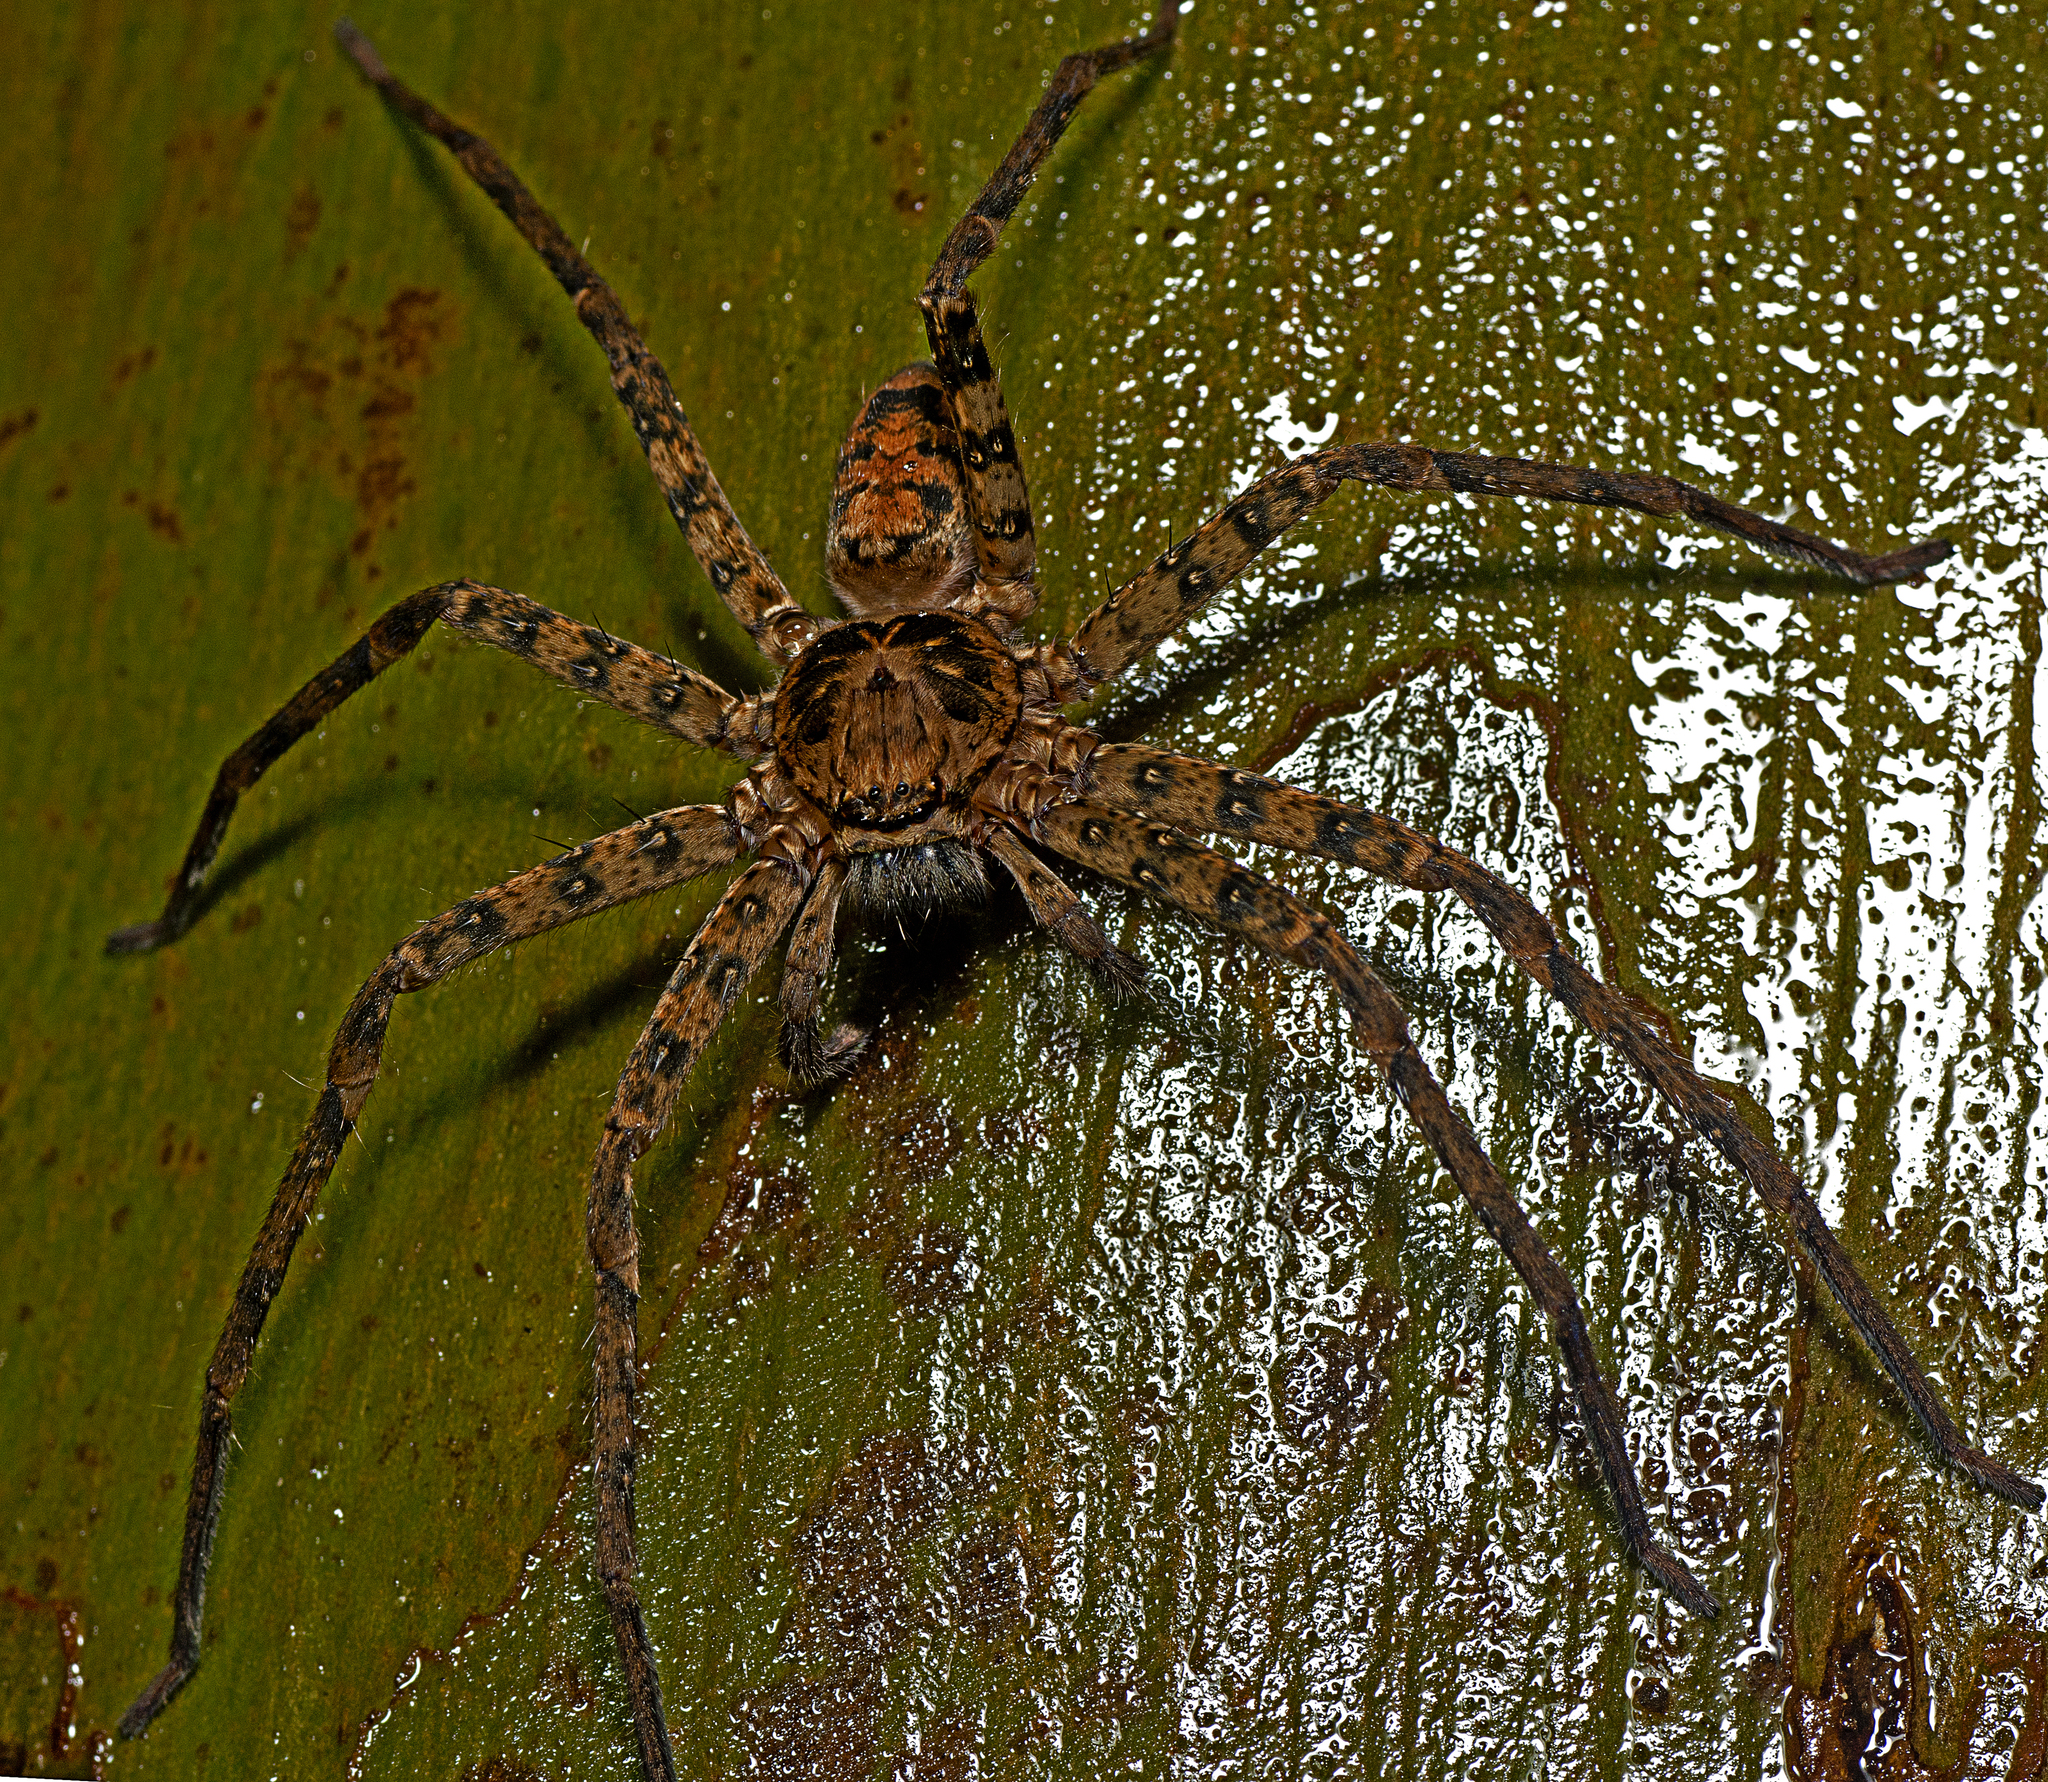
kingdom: Animalia
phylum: Arthropoda
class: Arachnida
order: Araneae
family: Sparassidae
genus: Heteropoda
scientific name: Heteropoda procera
